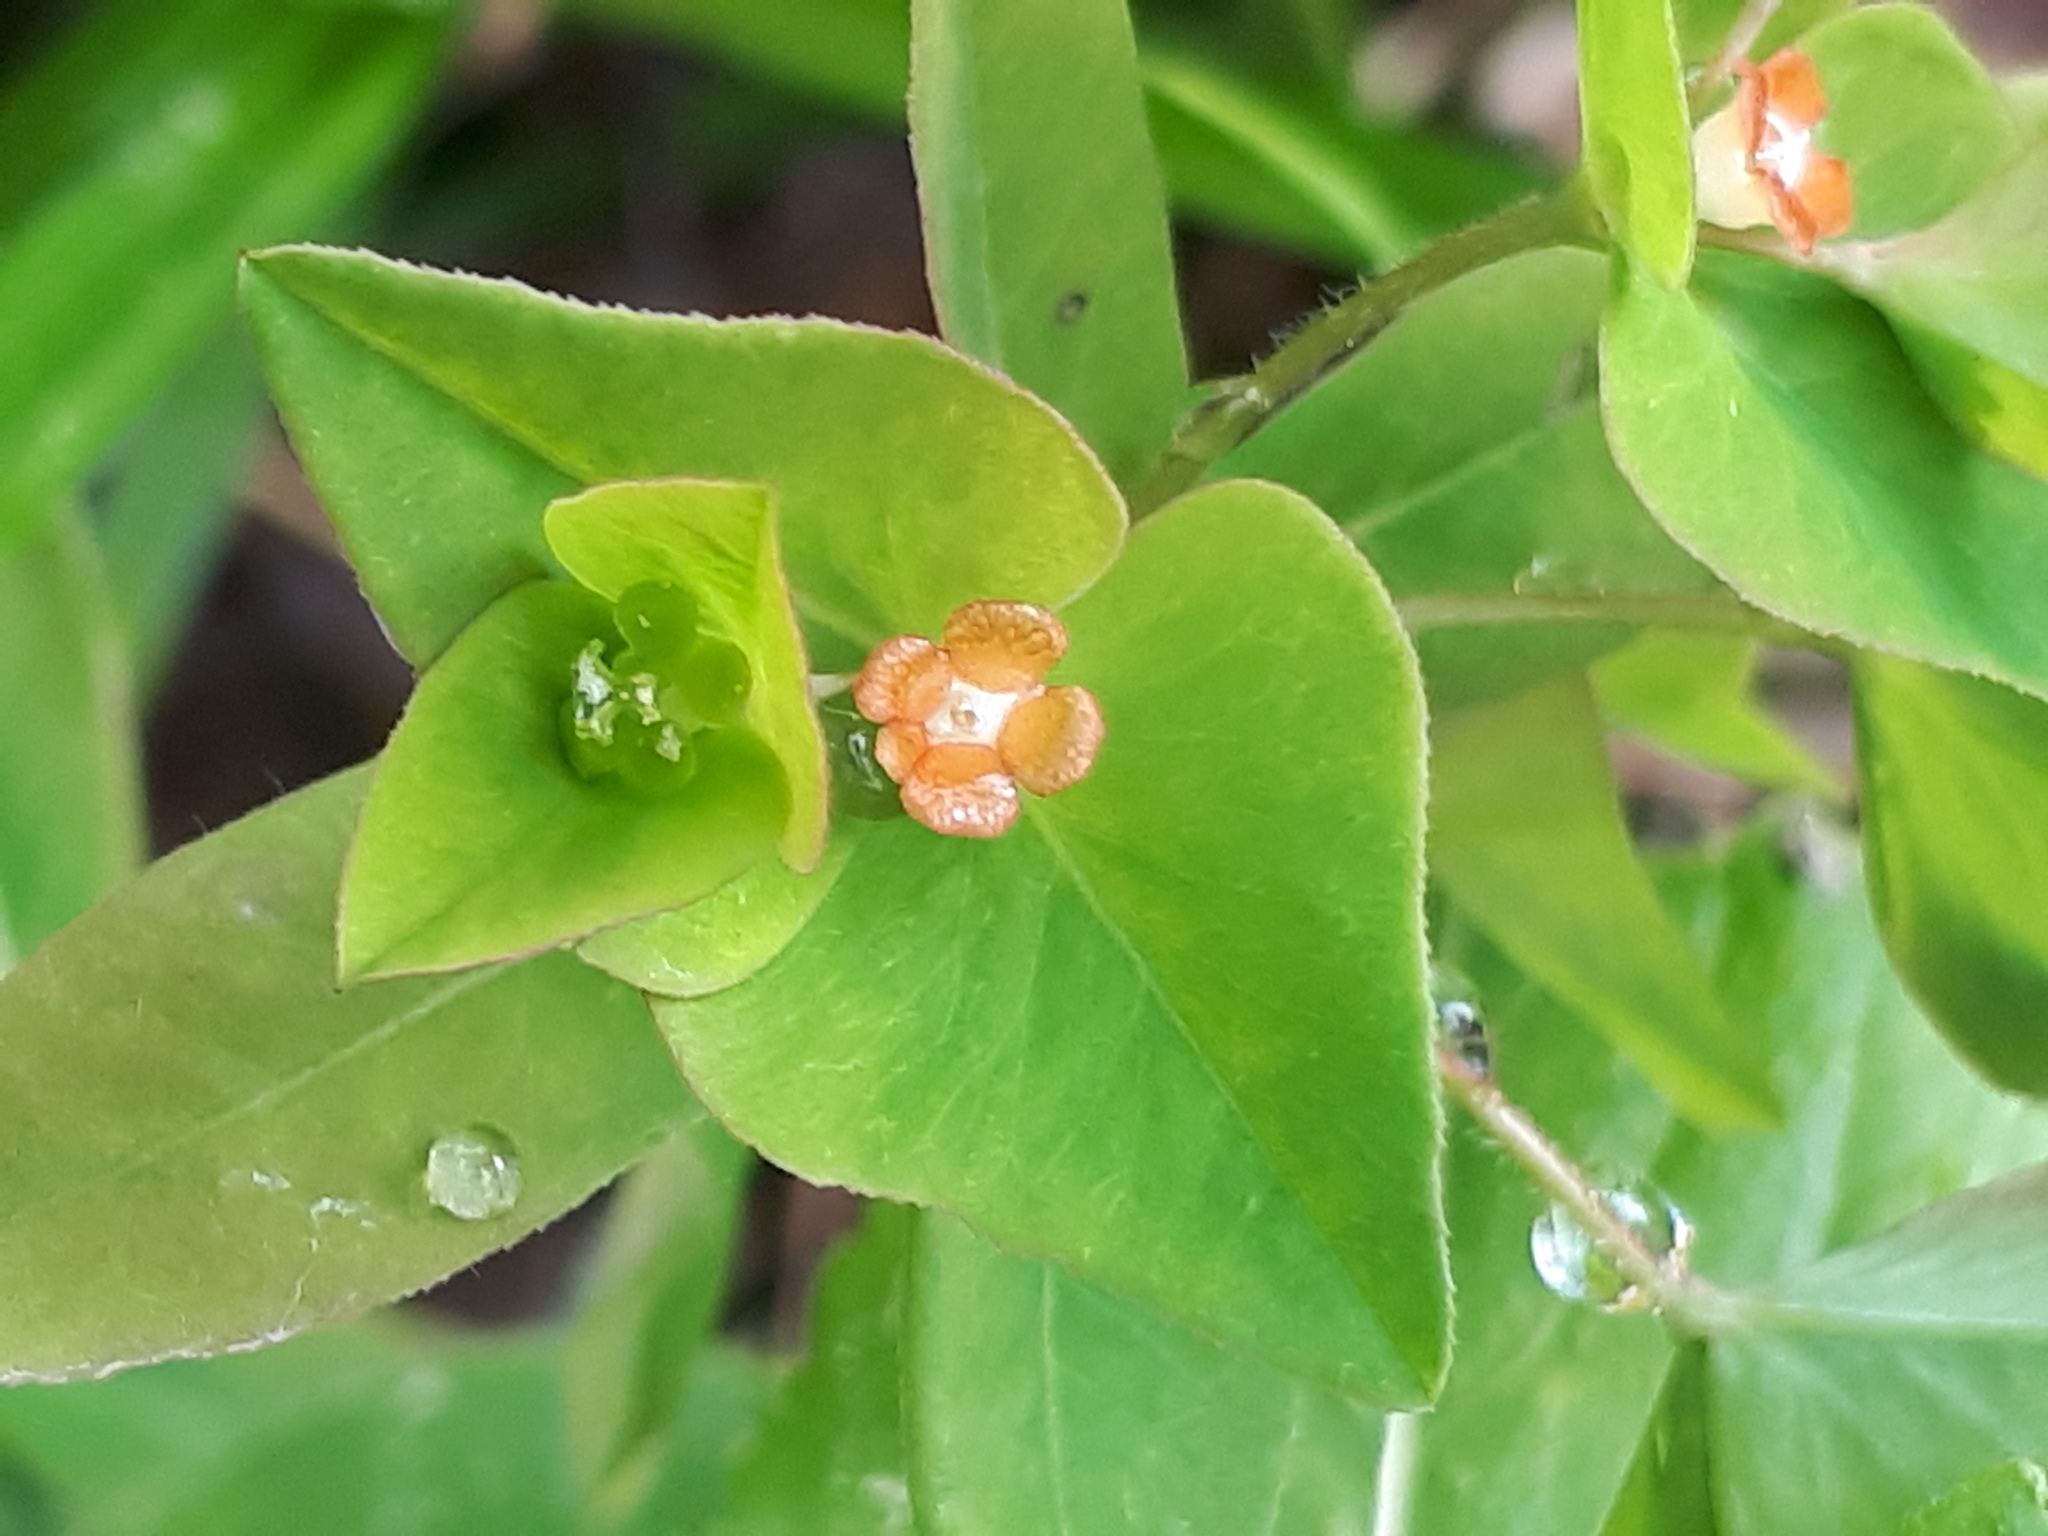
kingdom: Plantae
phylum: Tracheophyta
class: Magnoliopsida
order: Malpighiales
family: Euphorbiaceae
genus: Euphorbia
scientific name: Euphorbia dulcis
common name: Sweet spurge
